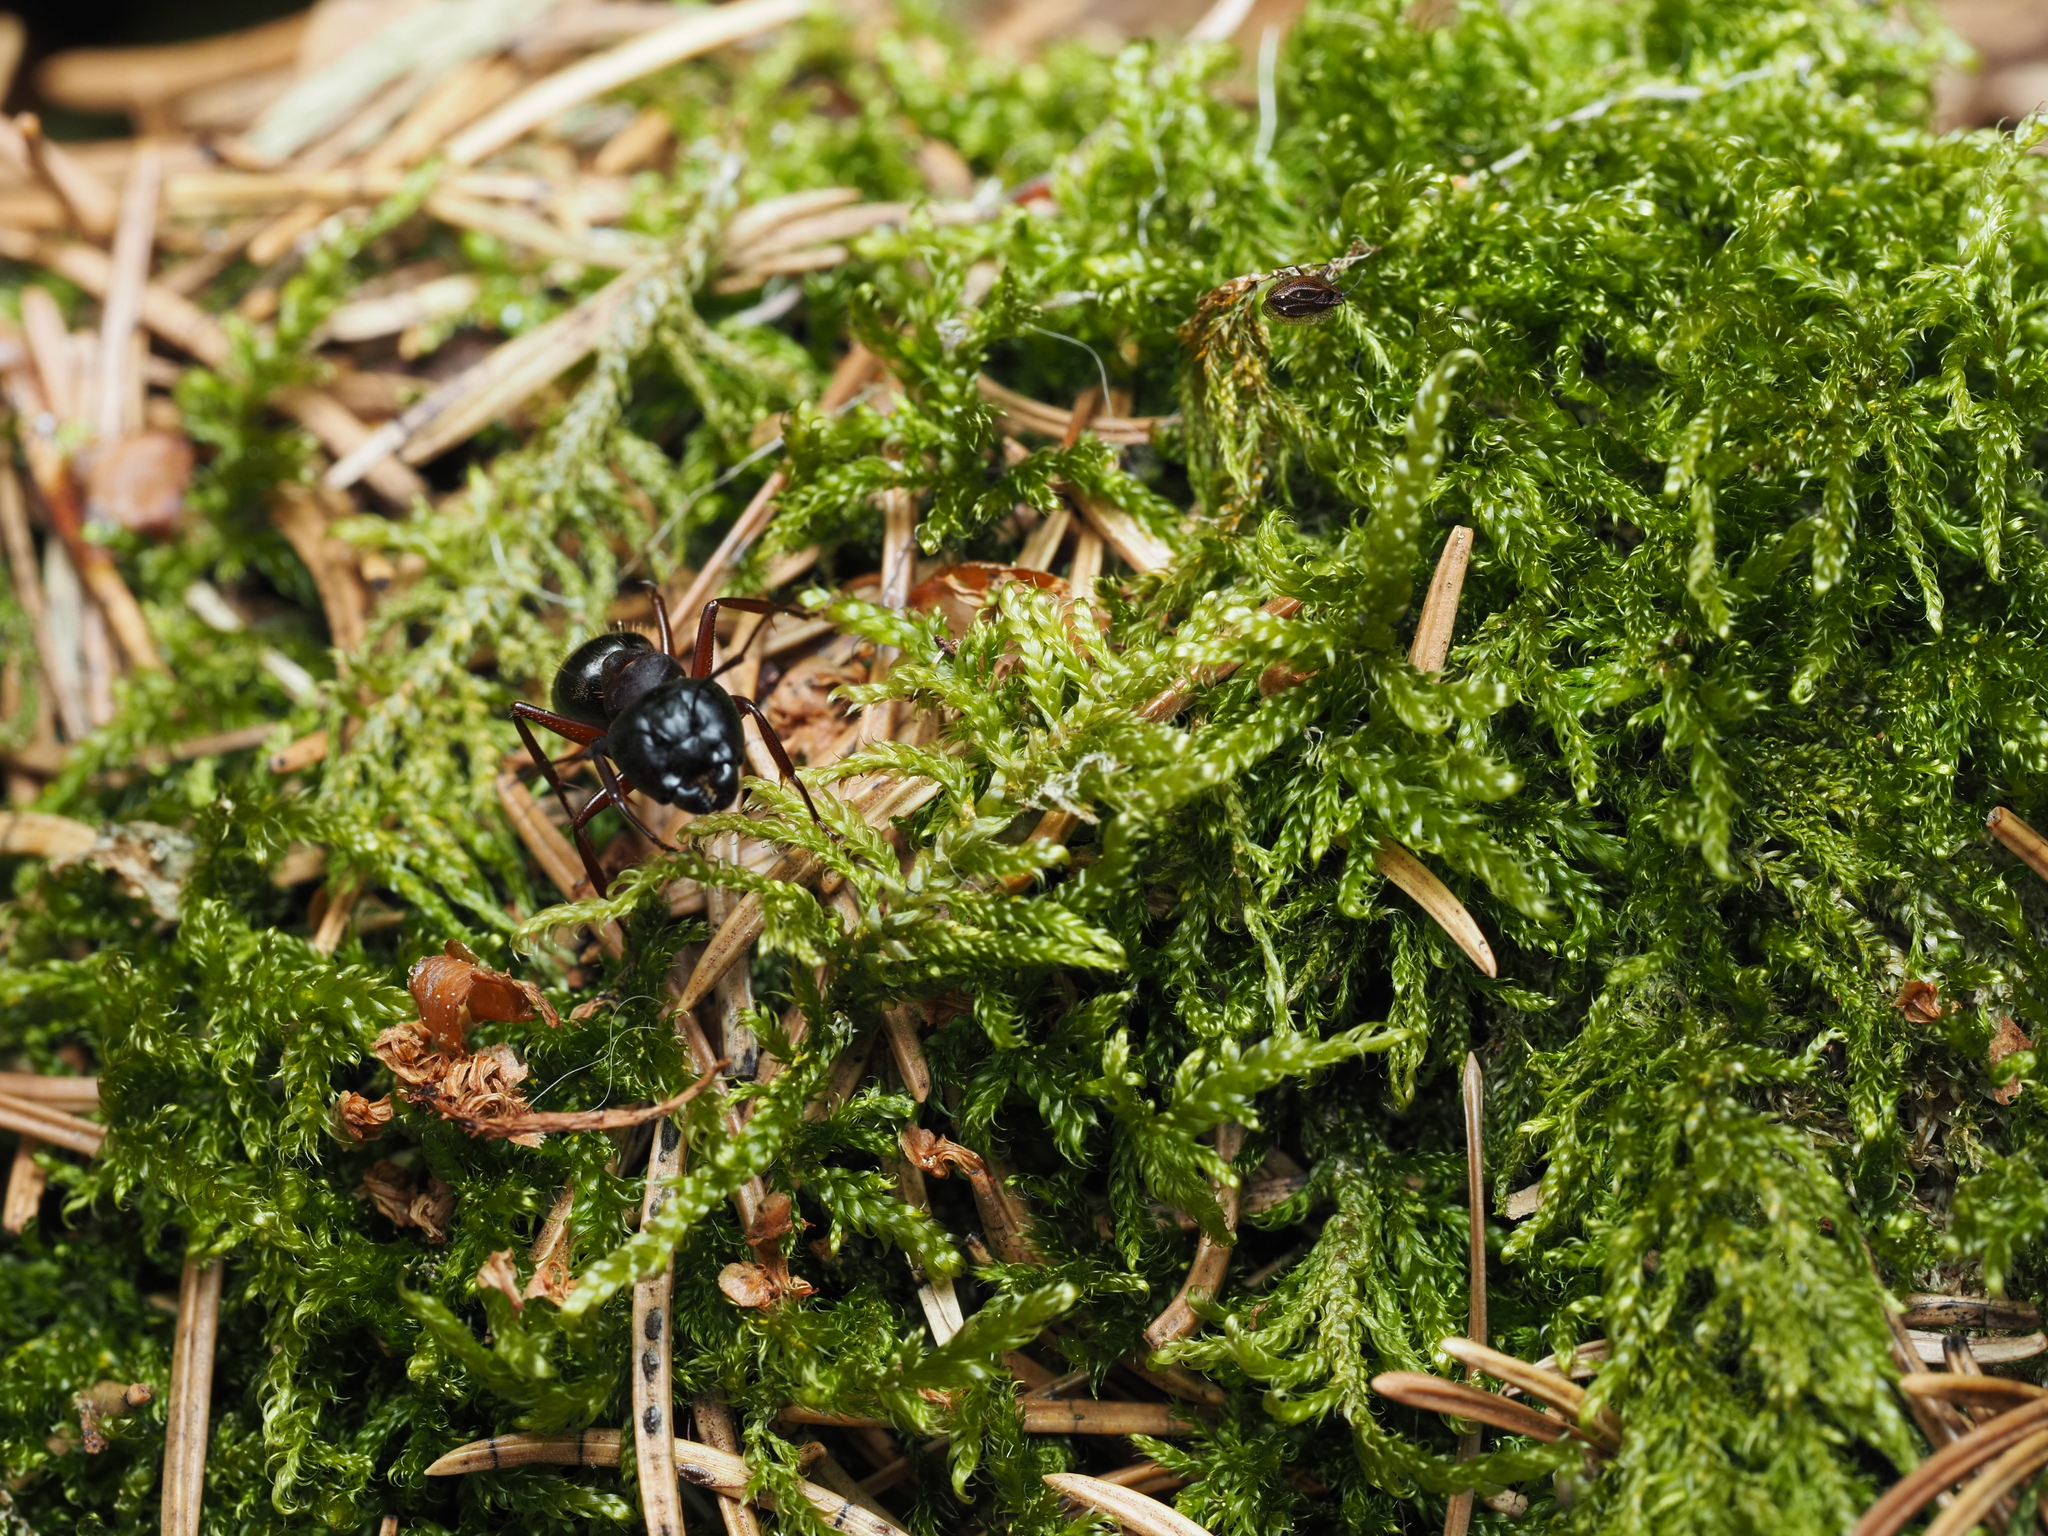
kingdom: Animalia
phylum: Arthropoda
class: Insecta
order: Hymenoptera
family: Formicidae
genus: Camponotus
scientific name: Camponotus herculeanus
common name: Hercules ant
